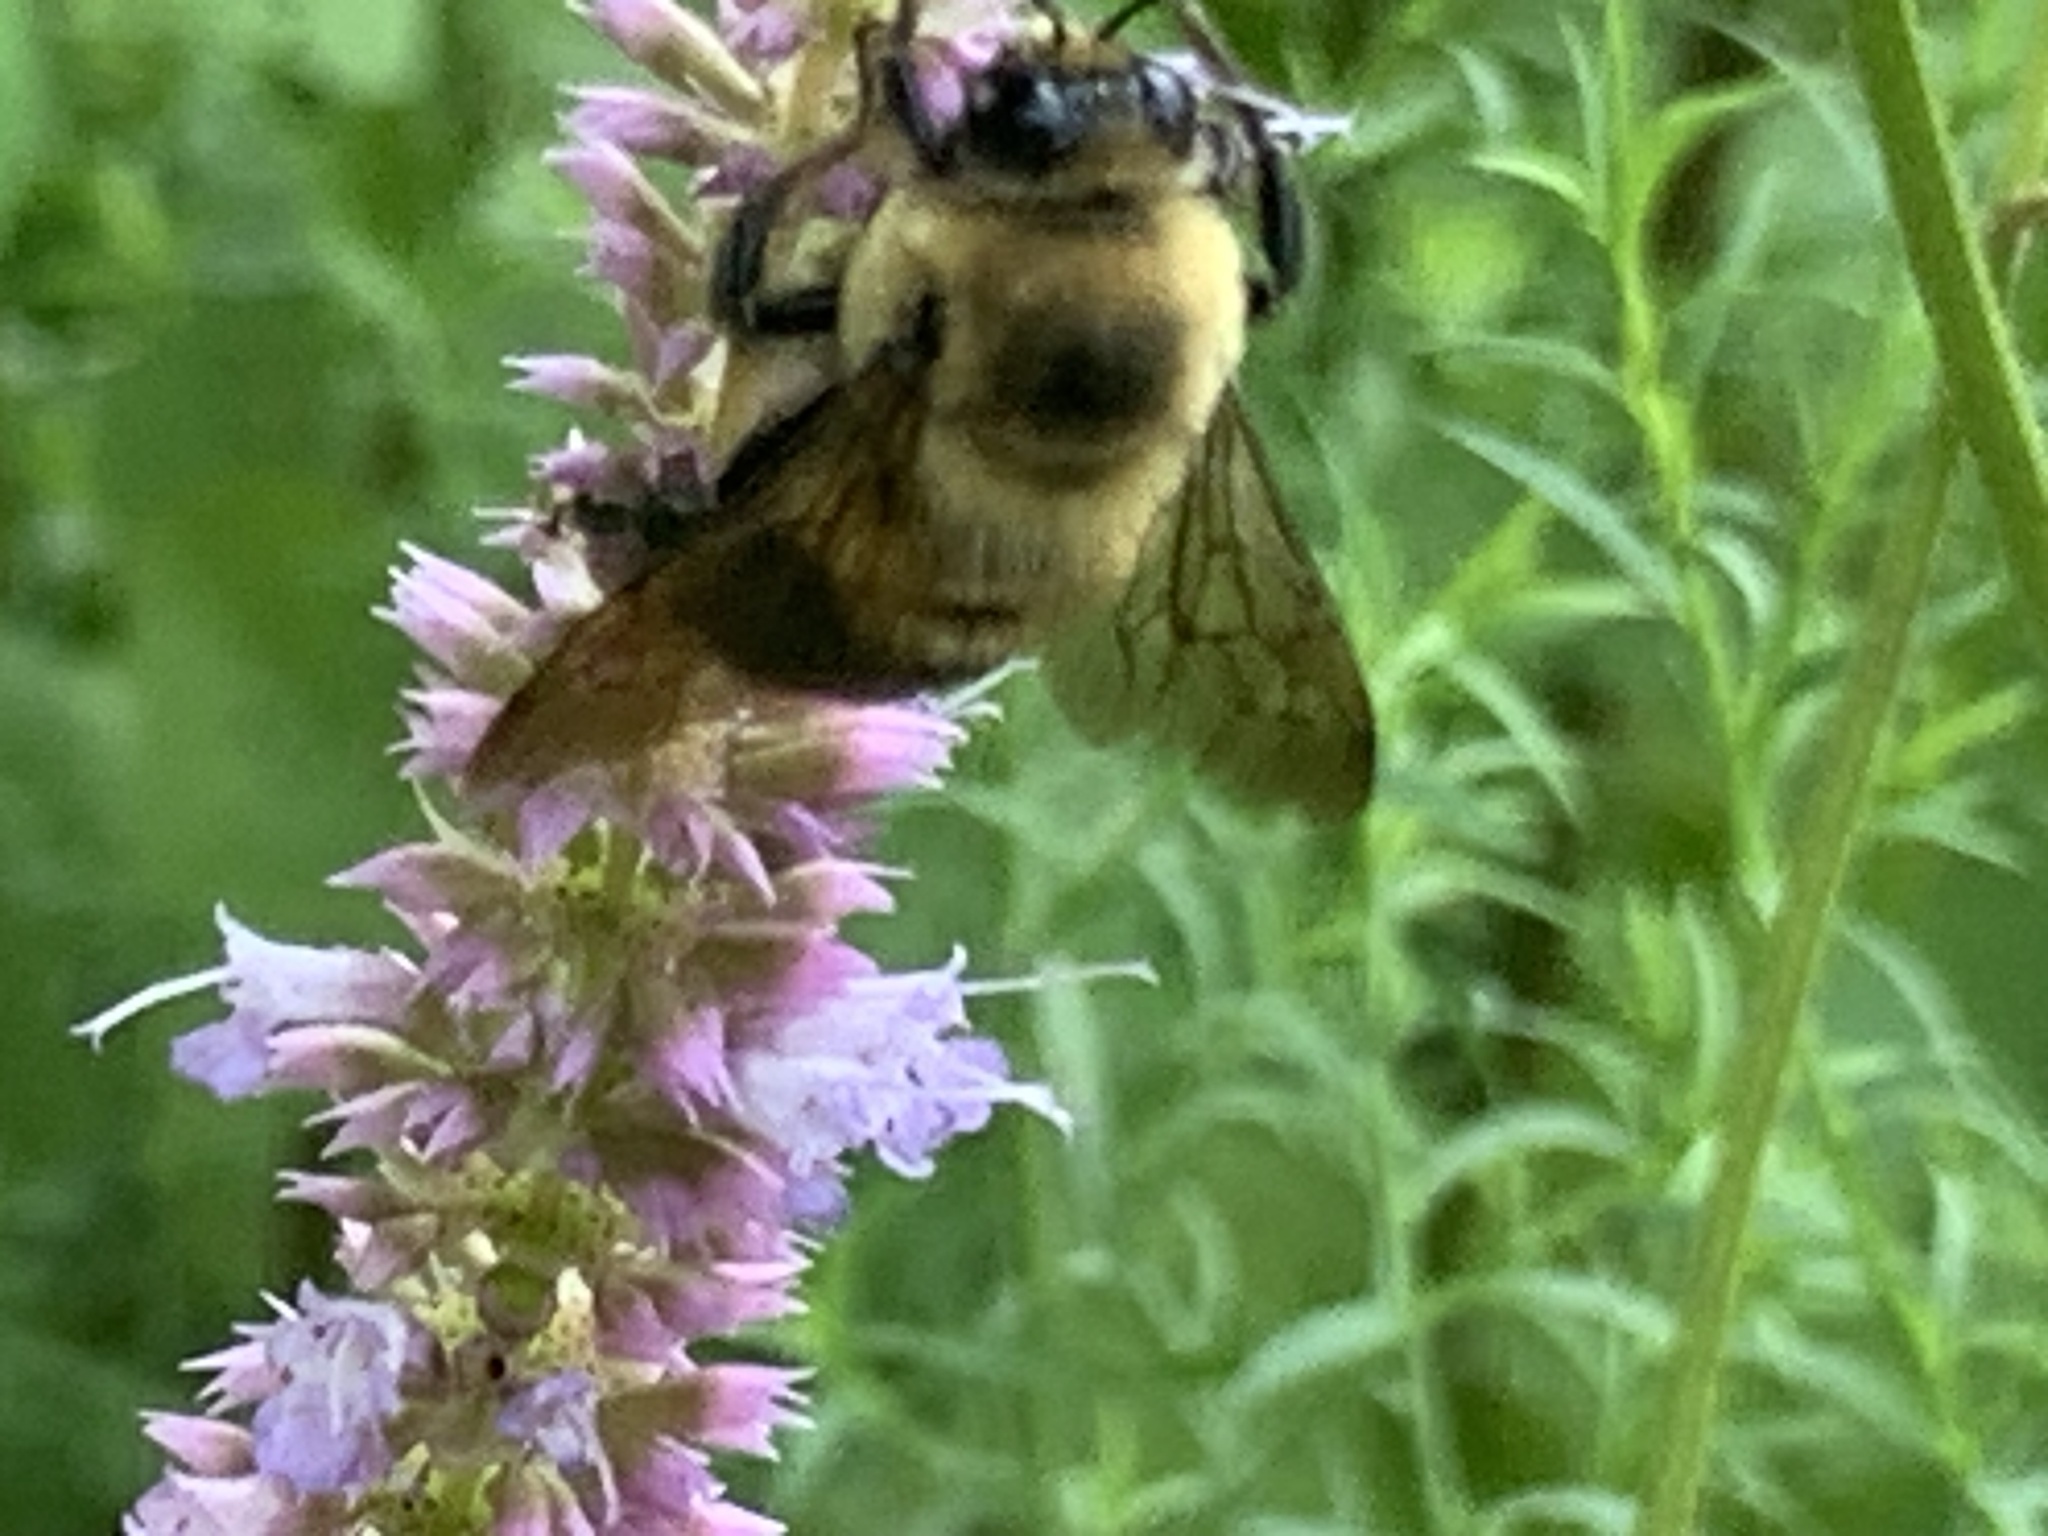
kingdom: Animalia
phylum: Arthropoda
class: Insecta
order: Hymenoptera
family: Apidae
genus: Bombus
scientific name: Bombus griseocollis
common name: Brown-belted bumble bee
